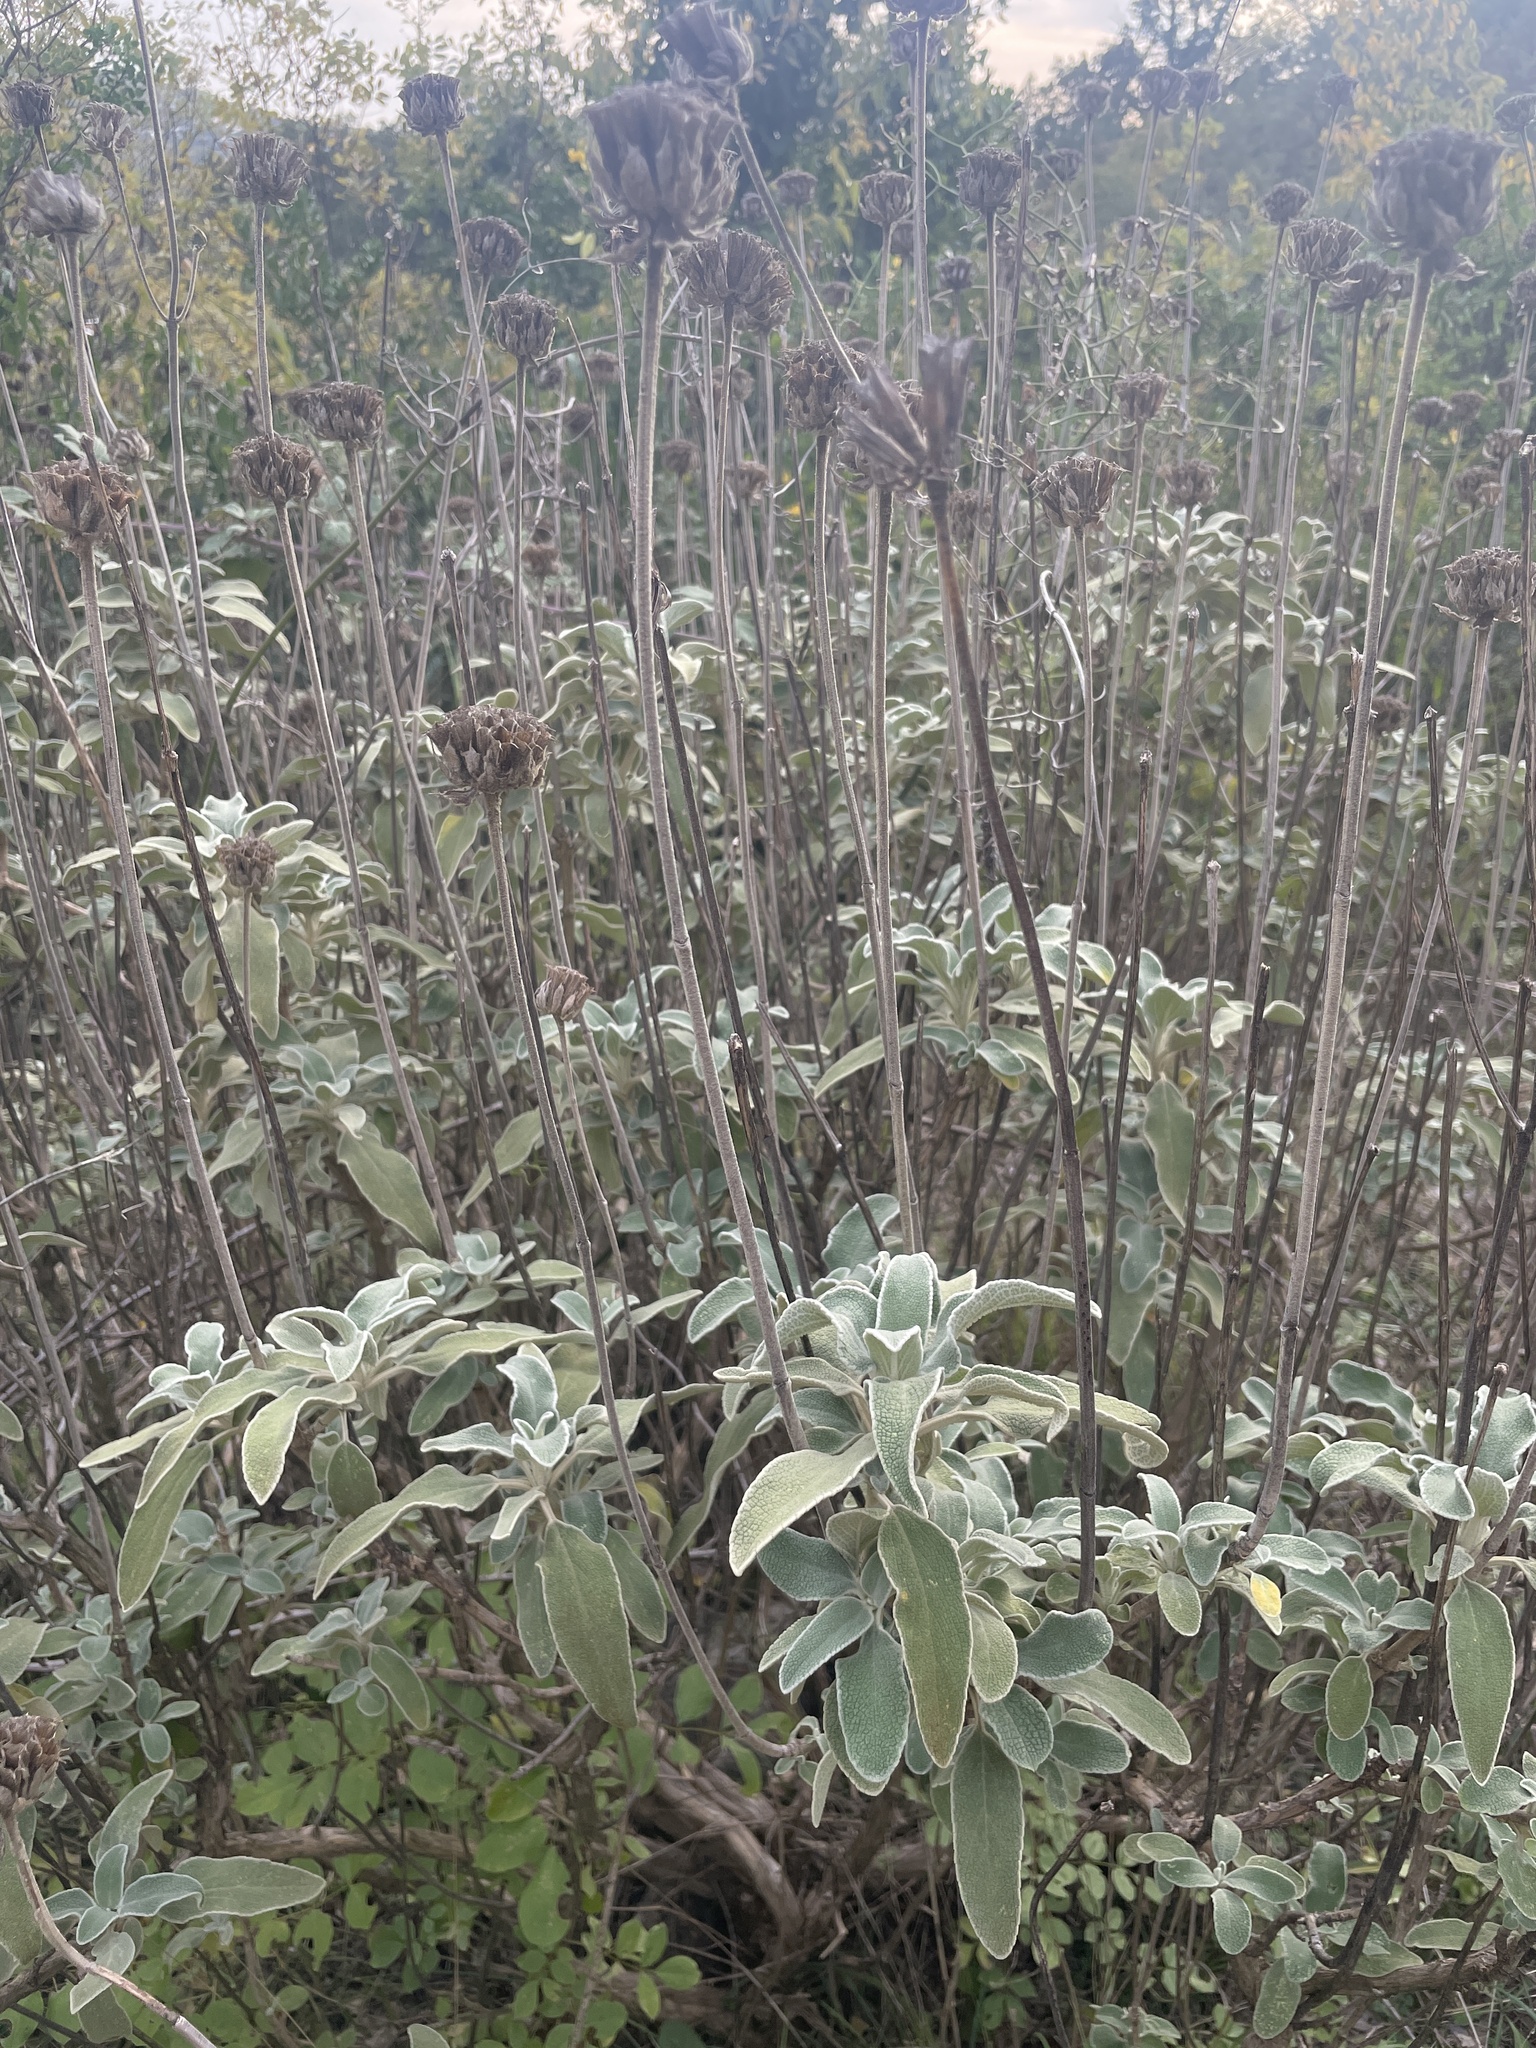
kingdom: Plantae
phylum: Tracheophyta
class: Magnoliopsida
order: Lamiales
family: Lamiaceae
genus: Phlomis
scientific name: Phlomis fruticosa
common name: Jerusalem sage
